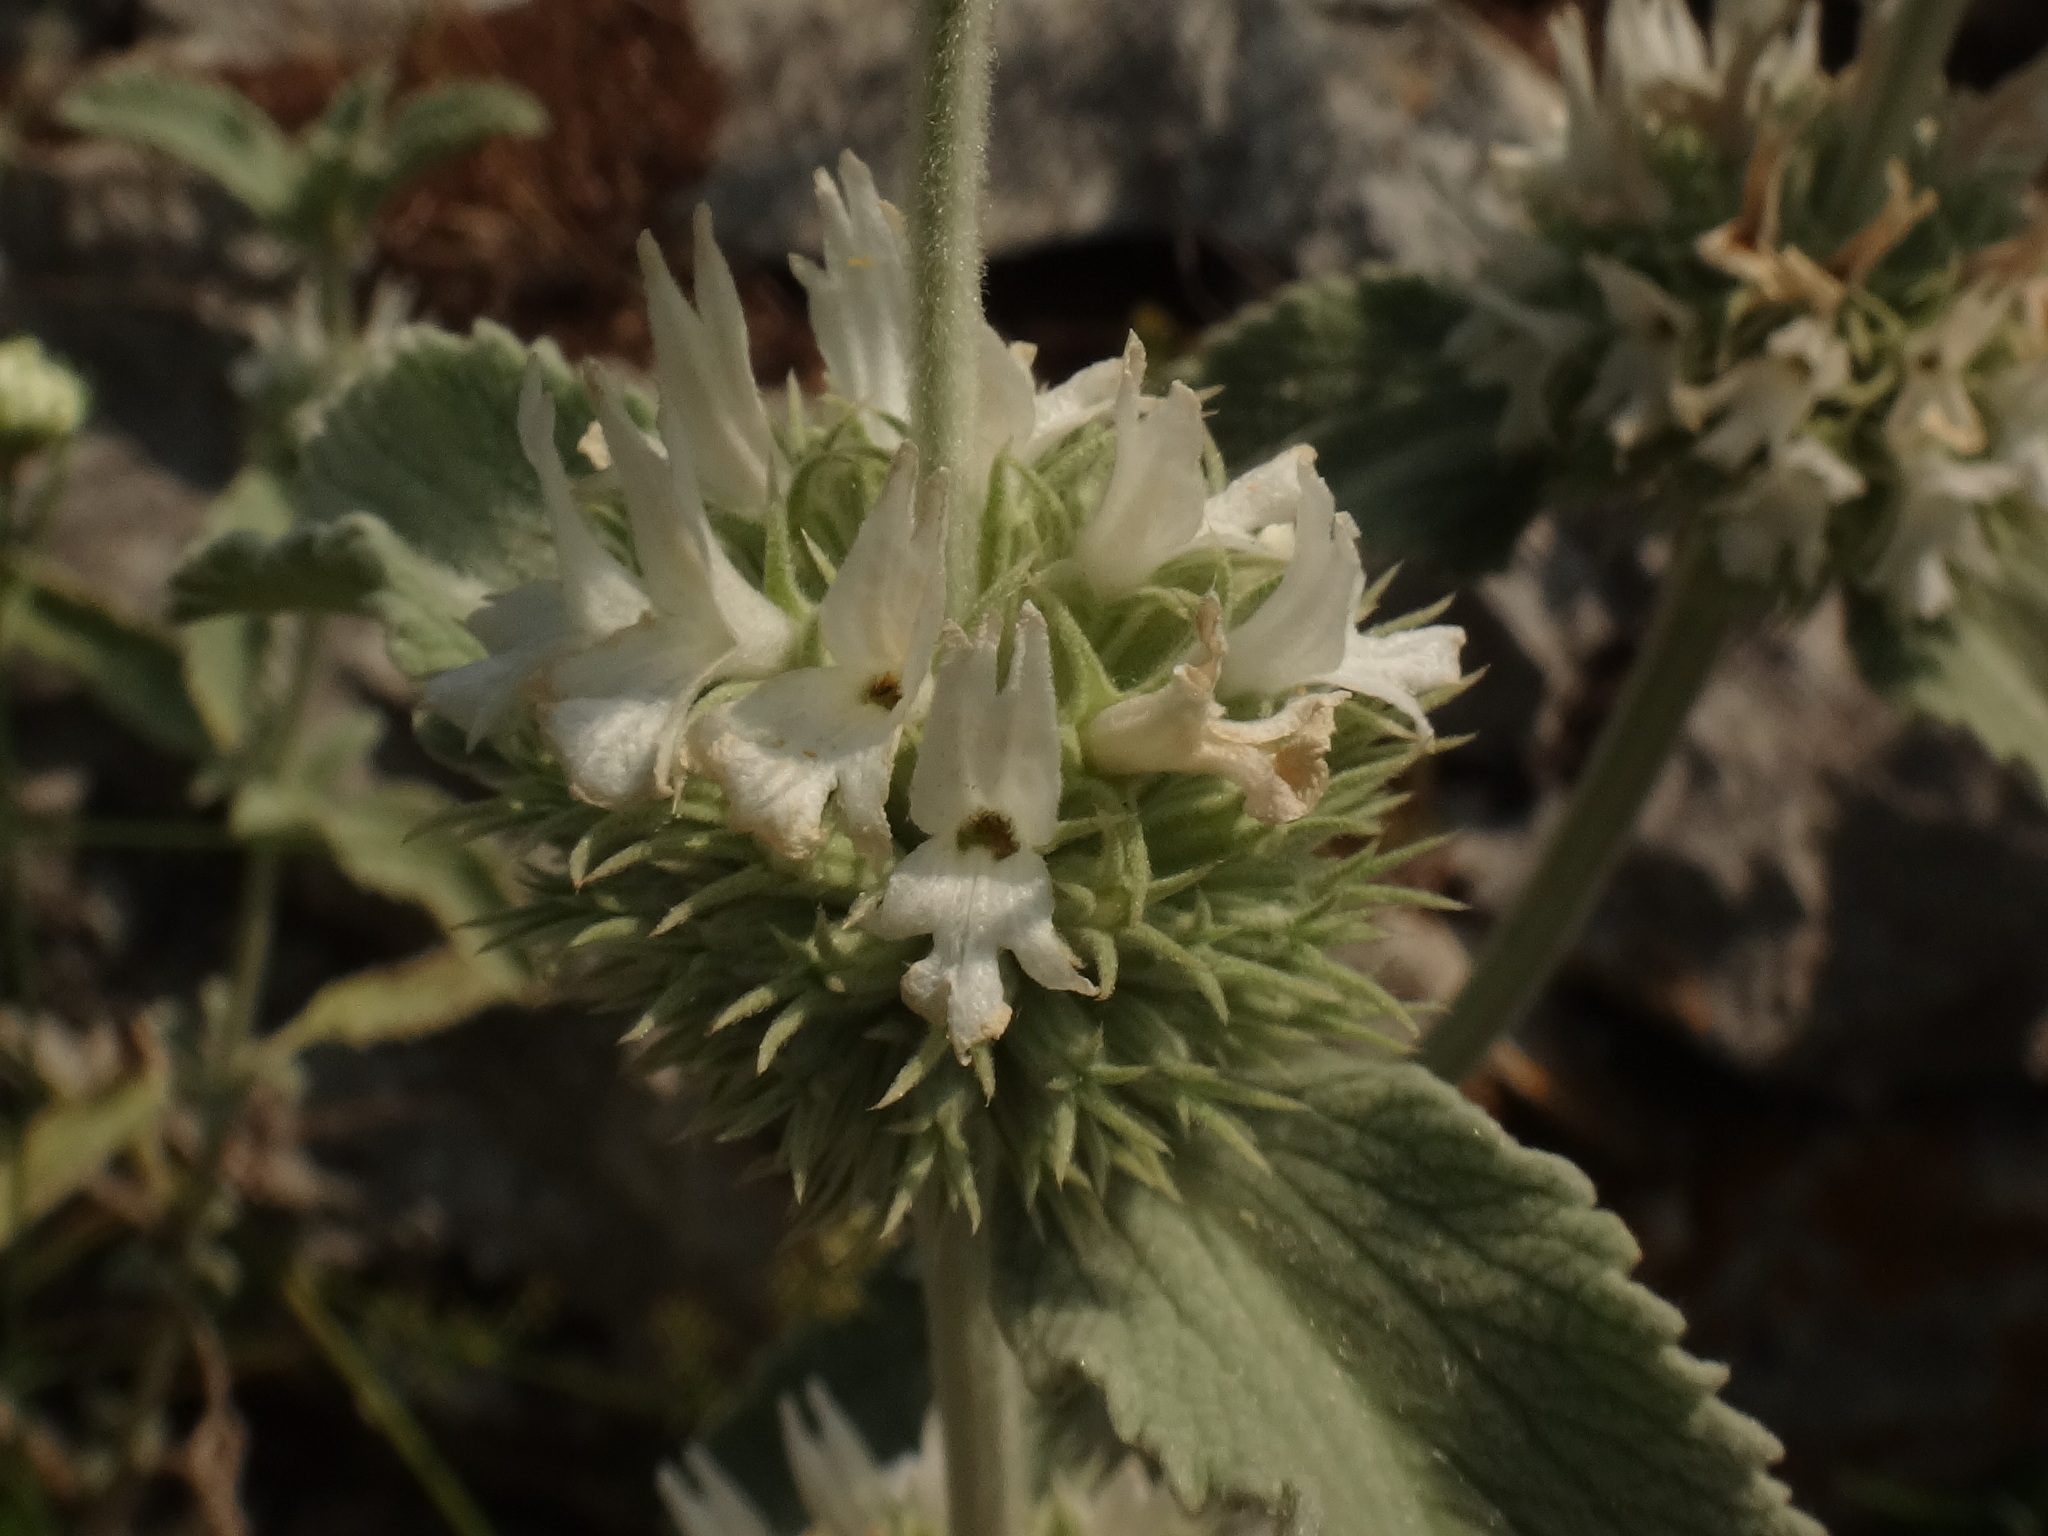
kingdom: Plantae
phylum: Tracheophyta
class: Magnoliopsida
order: Lamiales
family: Lamiaceae
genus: Marrubium
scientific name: Marrubium incanum
